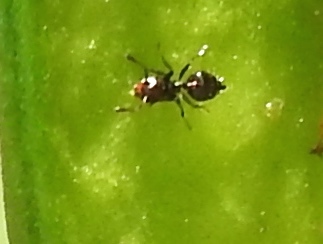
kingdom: Animalia
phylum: Arthropoda
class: Insecta
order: Hymenoptera
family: Formicidae
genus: Crematogaster
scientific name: Crematogaster
